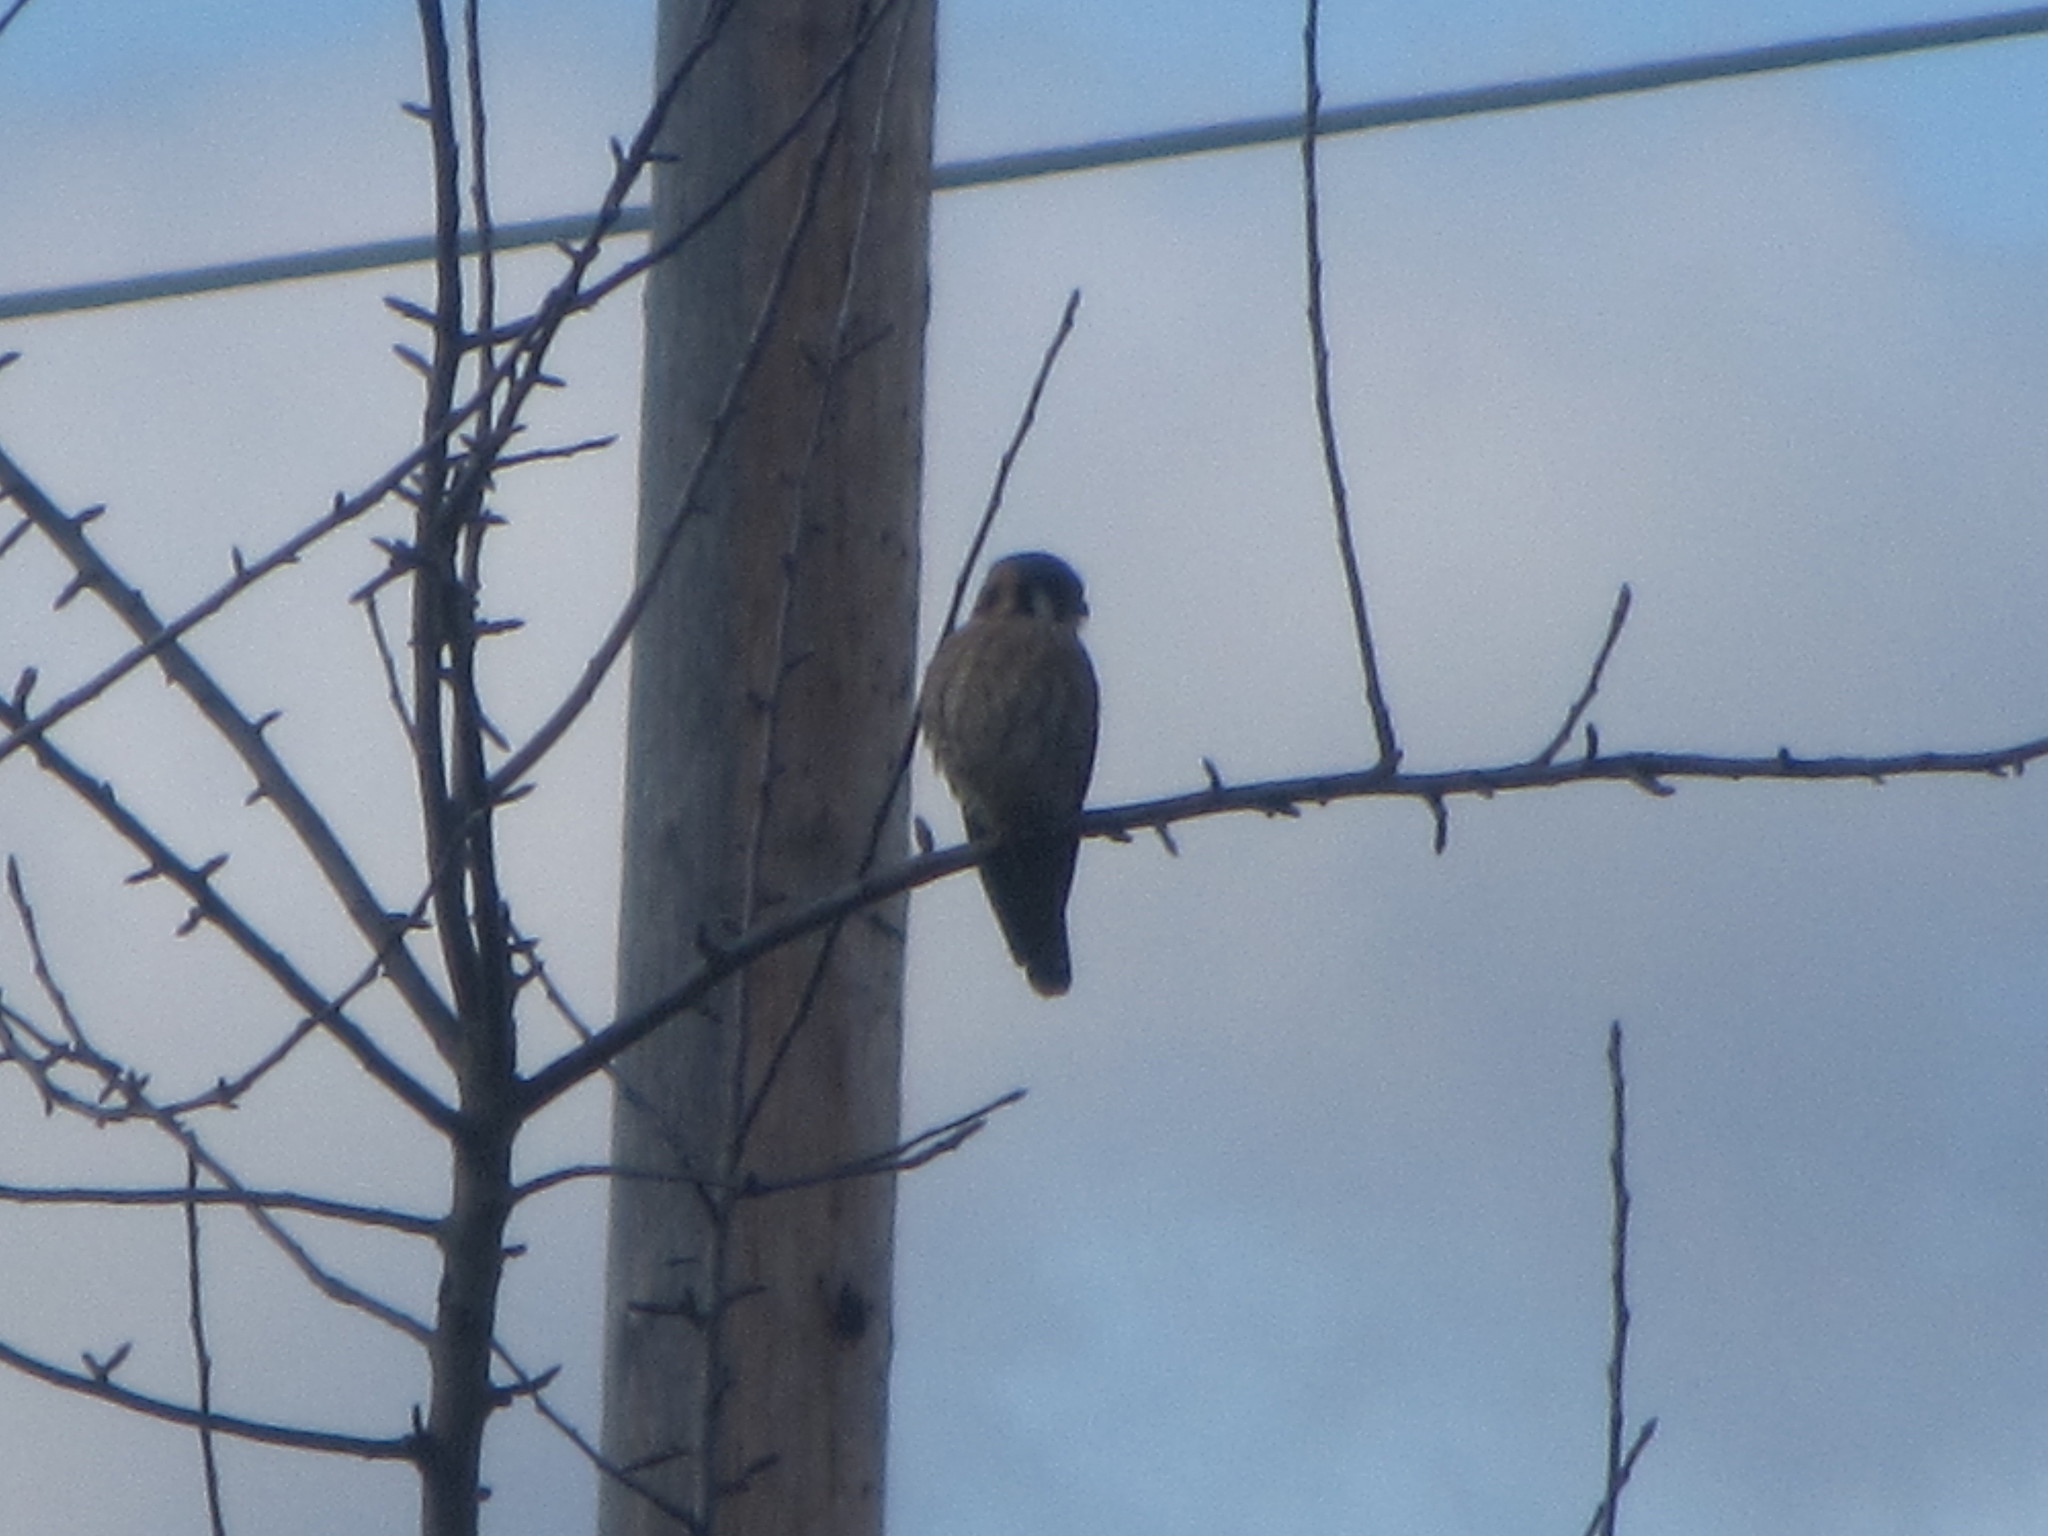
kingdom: Animalia
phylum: Chordata
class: Aves
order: Falconiformes
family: Falconidae
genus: Falco
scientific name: Falco sparverius
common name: American kestrel
